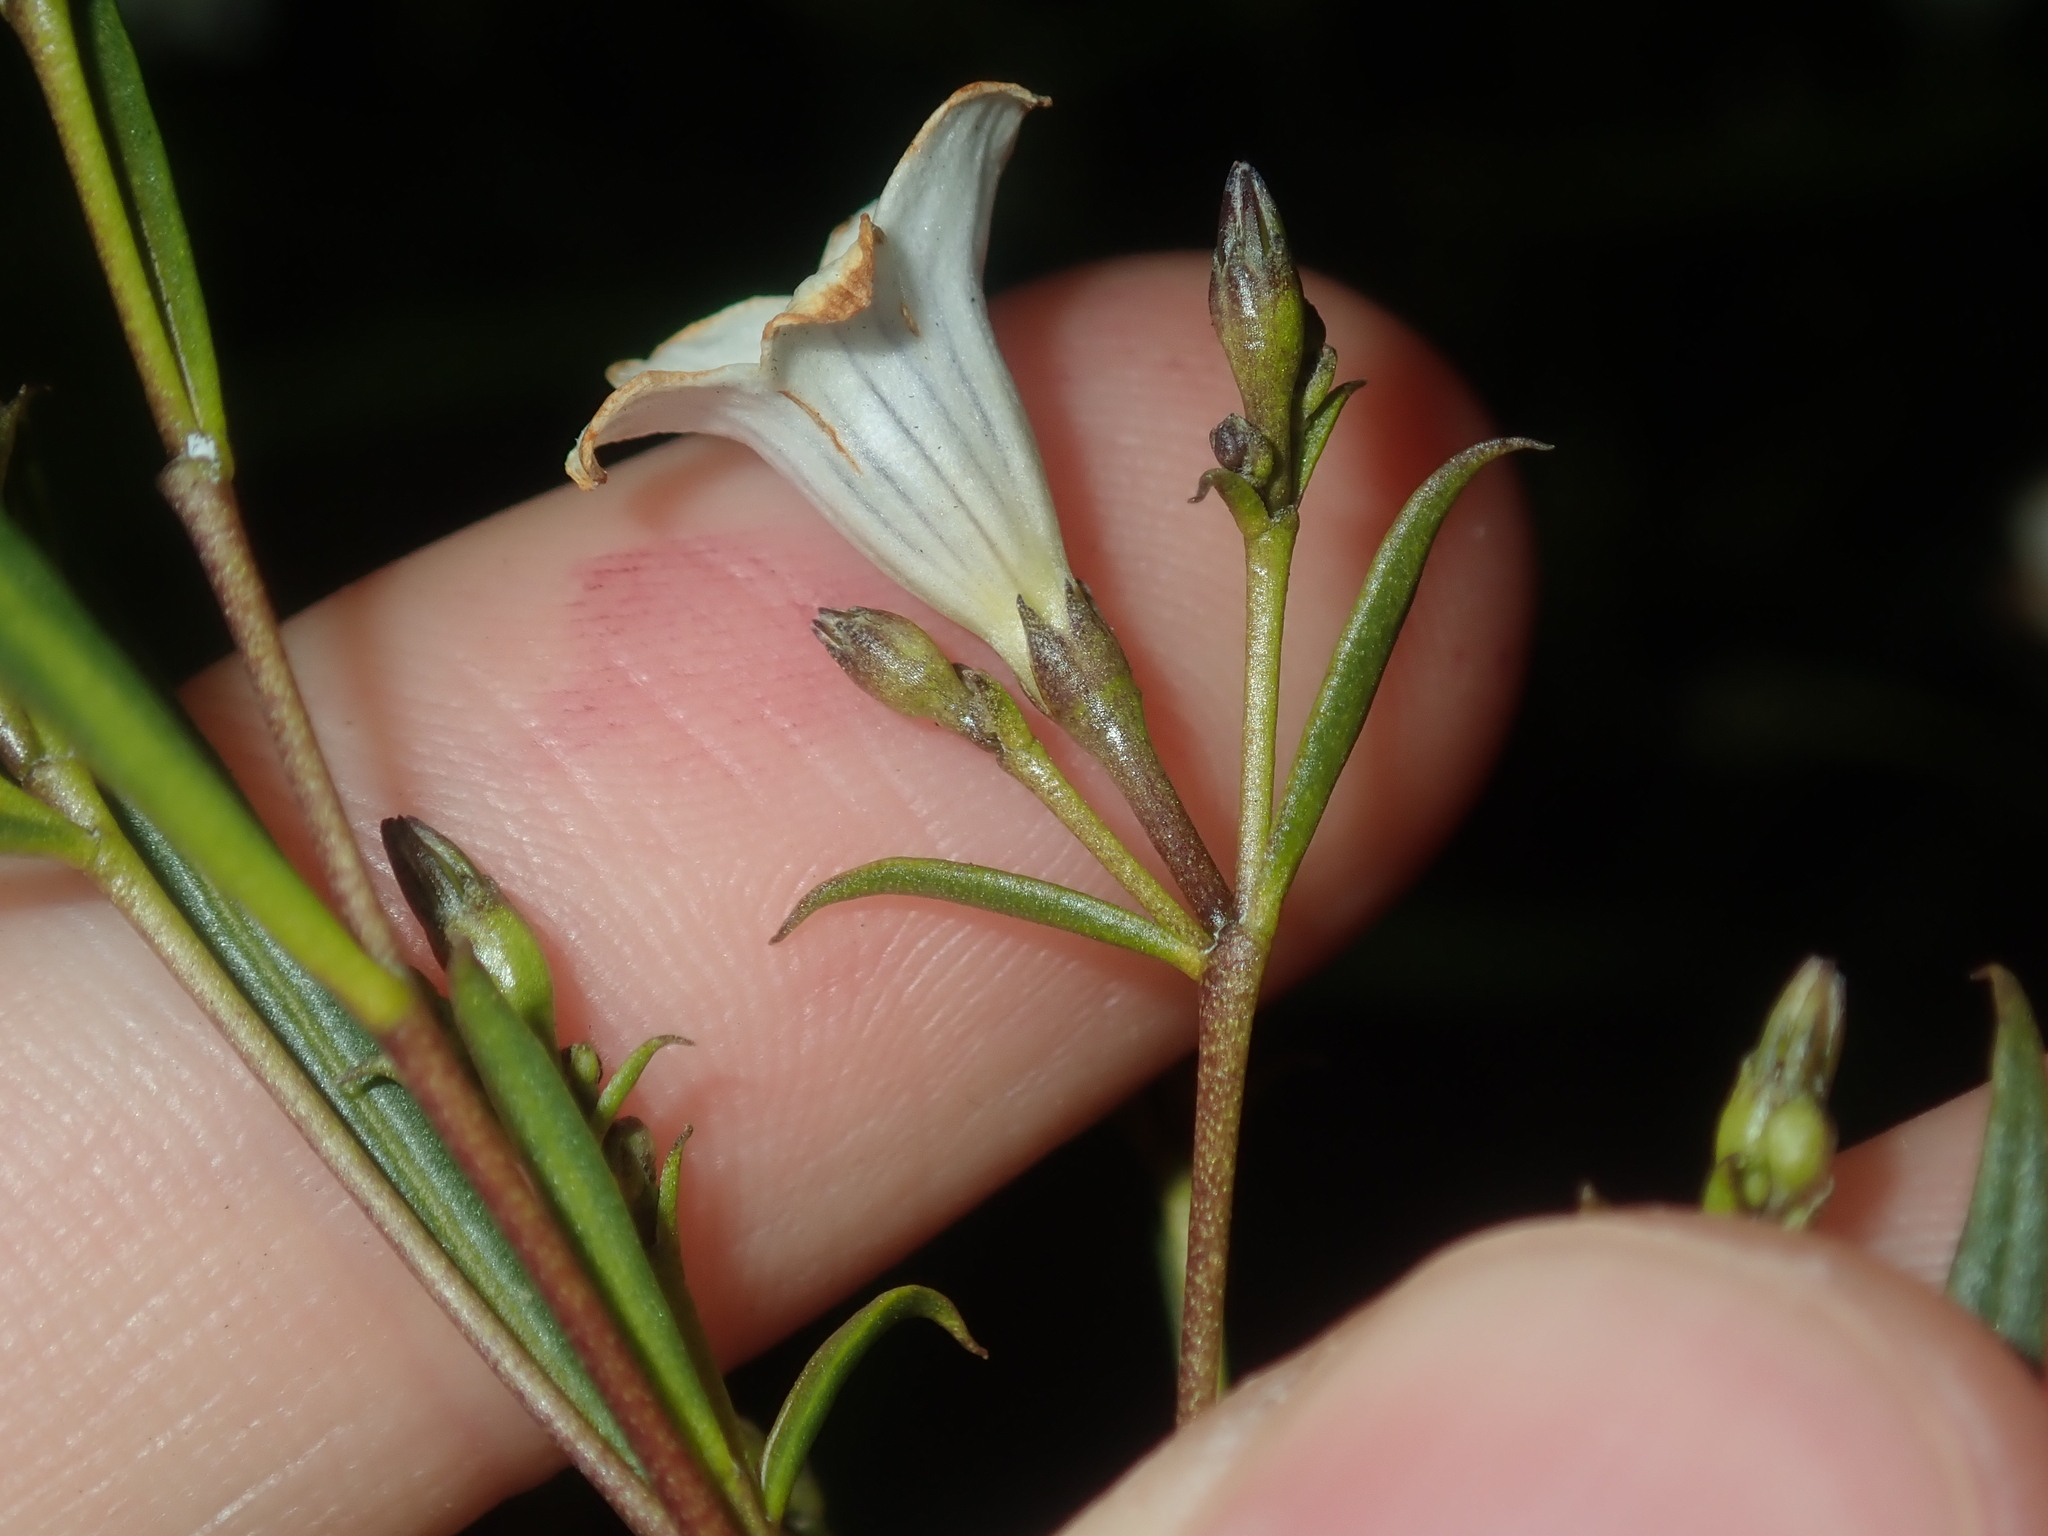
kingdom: Plantae
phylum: Tracheophyta
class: Magnoliopsida
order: Solanales
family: Solanaceae
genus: Duboisia
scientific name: Duboisia hopwoodii
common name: Pituri
